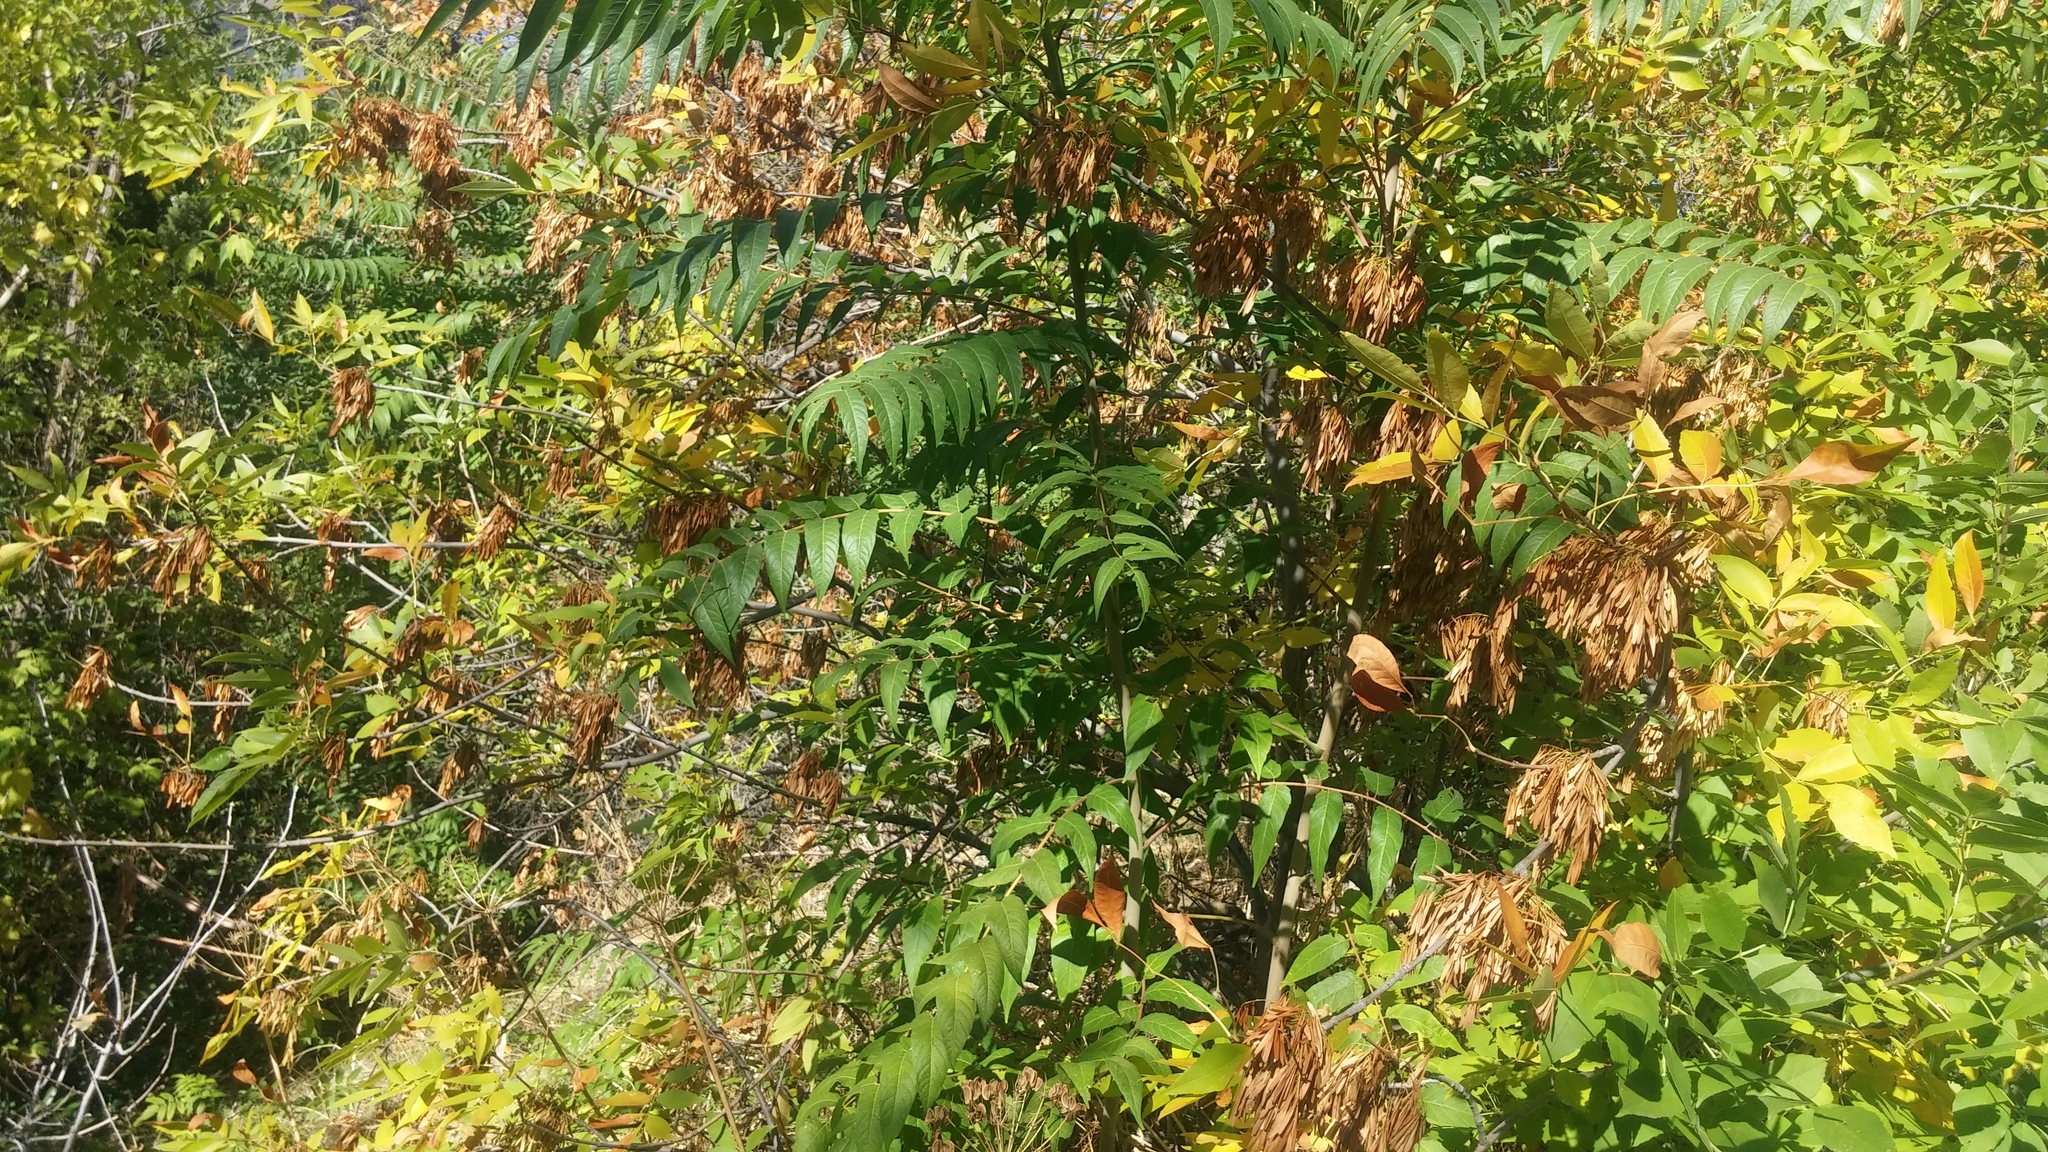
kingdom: Plantae
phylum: Tracheophyta
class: Magnoliopsida
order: Sapindales
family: Simaroubaceae
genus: Ailanthus
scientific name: Ailanthus altissima
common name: Tree-of-heaven
